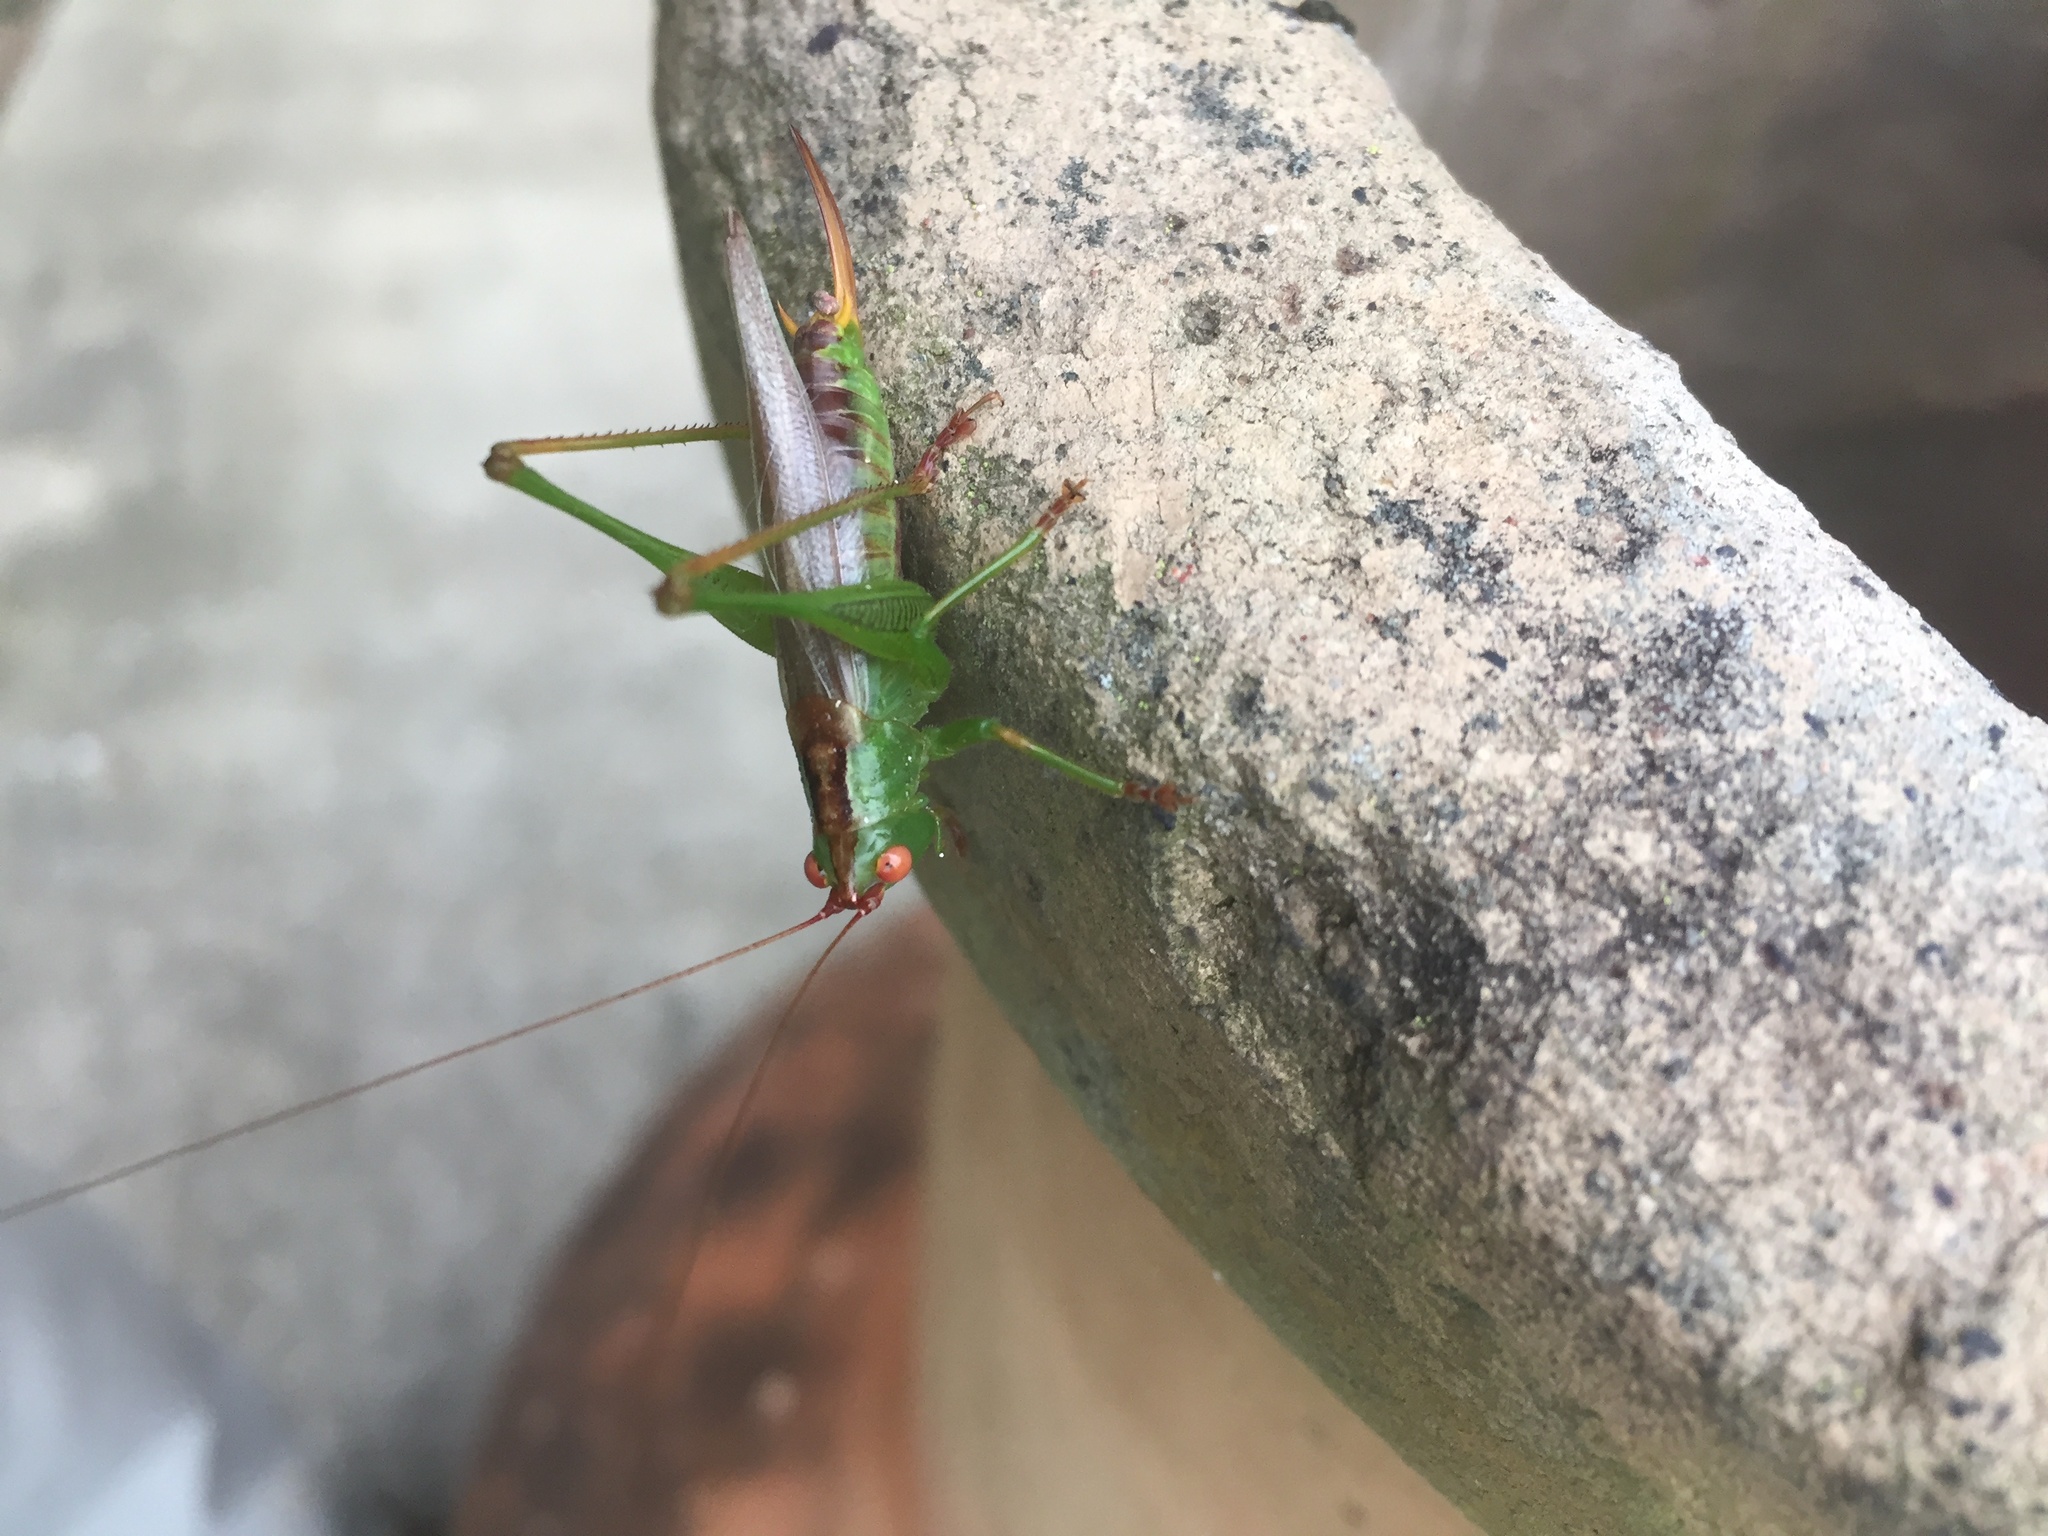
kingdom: Animalia
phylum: Arthropoda
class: Insecta
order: Orthoptera
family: Tettigoniidae
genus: Orchelimum
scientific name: Orchelimum vulgare
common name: Common meadow katydid
